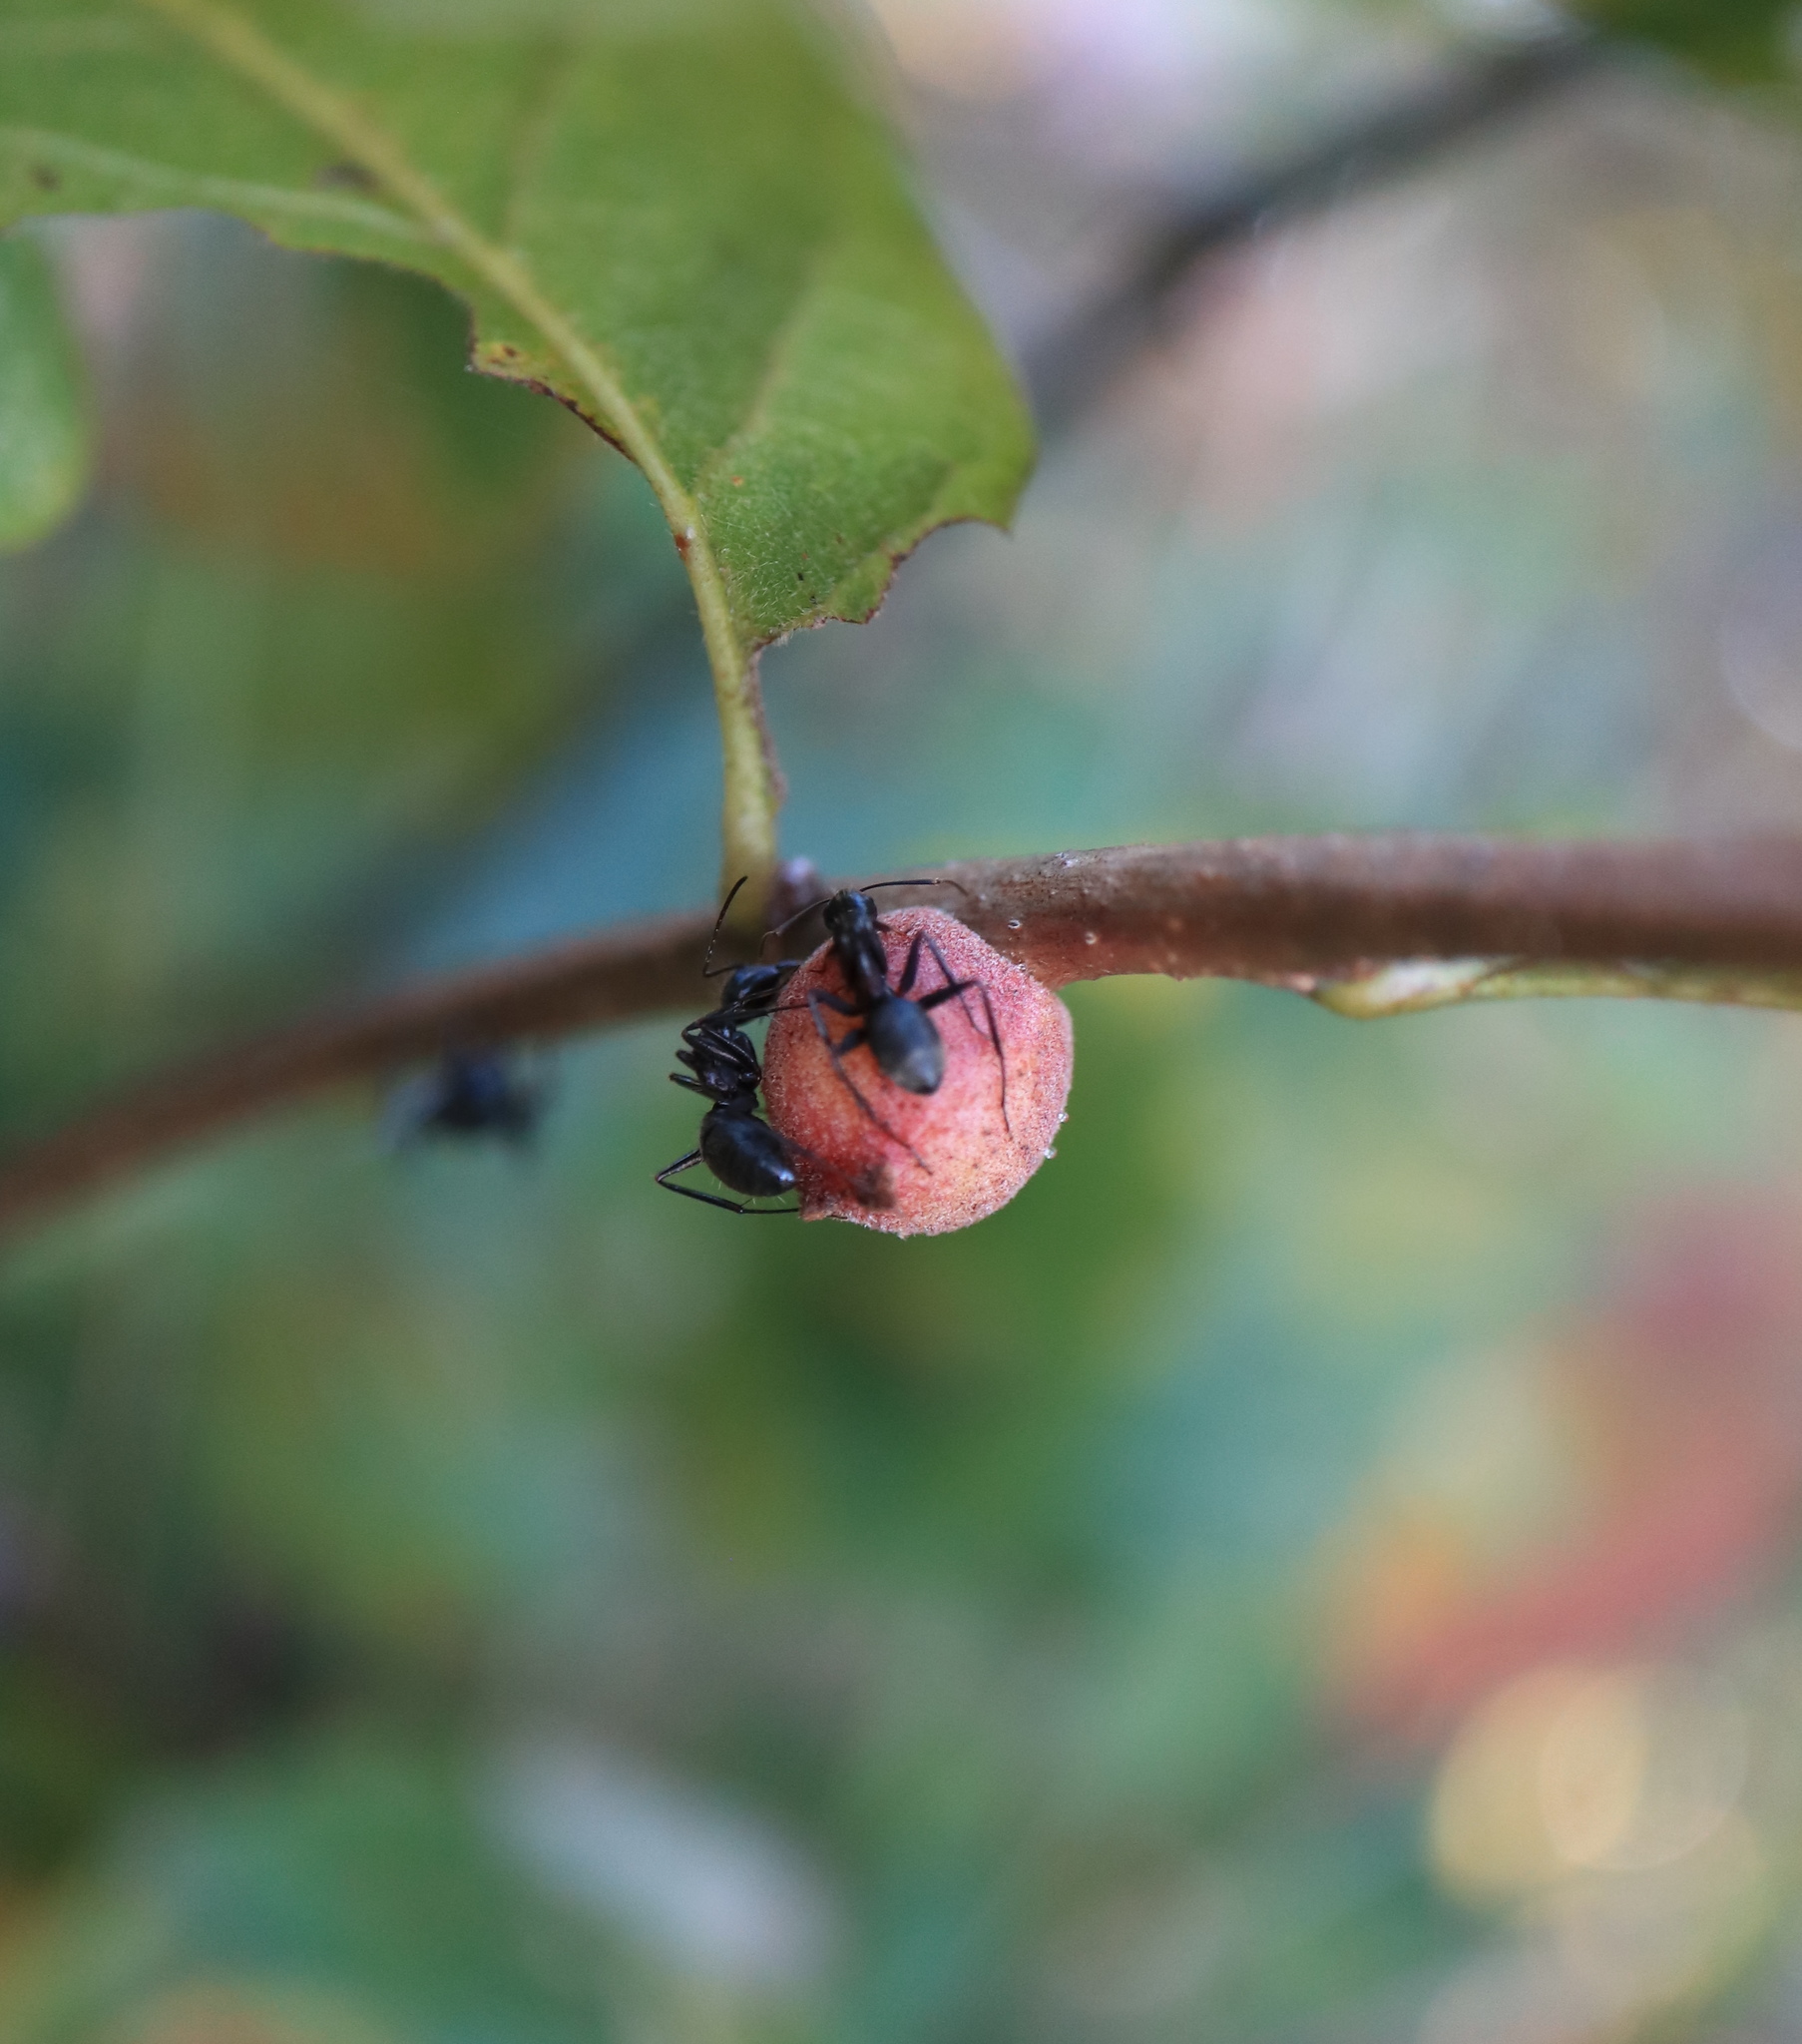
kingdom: Animalia
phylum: Arthropoda
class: Insecta
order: Hymenoptera
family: Cynipidae
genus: Disholcaspis
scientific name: Disholcaspis
